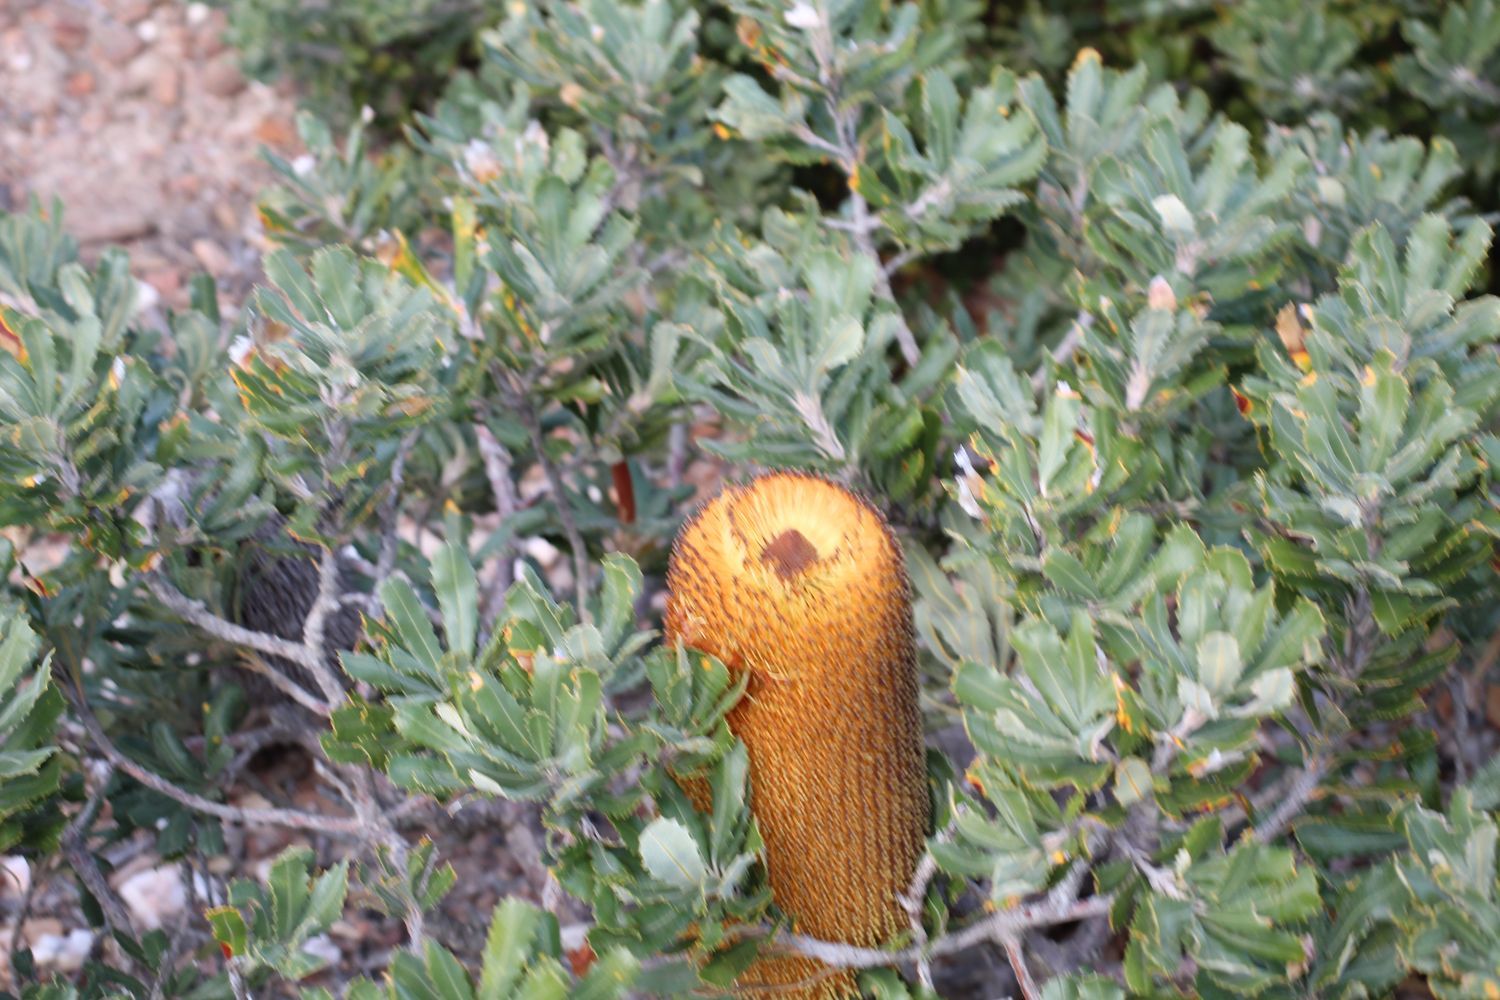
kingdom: Plantae
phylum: Tracheophyta
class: Magnoliopsida
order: Proteales
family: Proteaceae
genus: Banksia
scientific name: Banksia media
